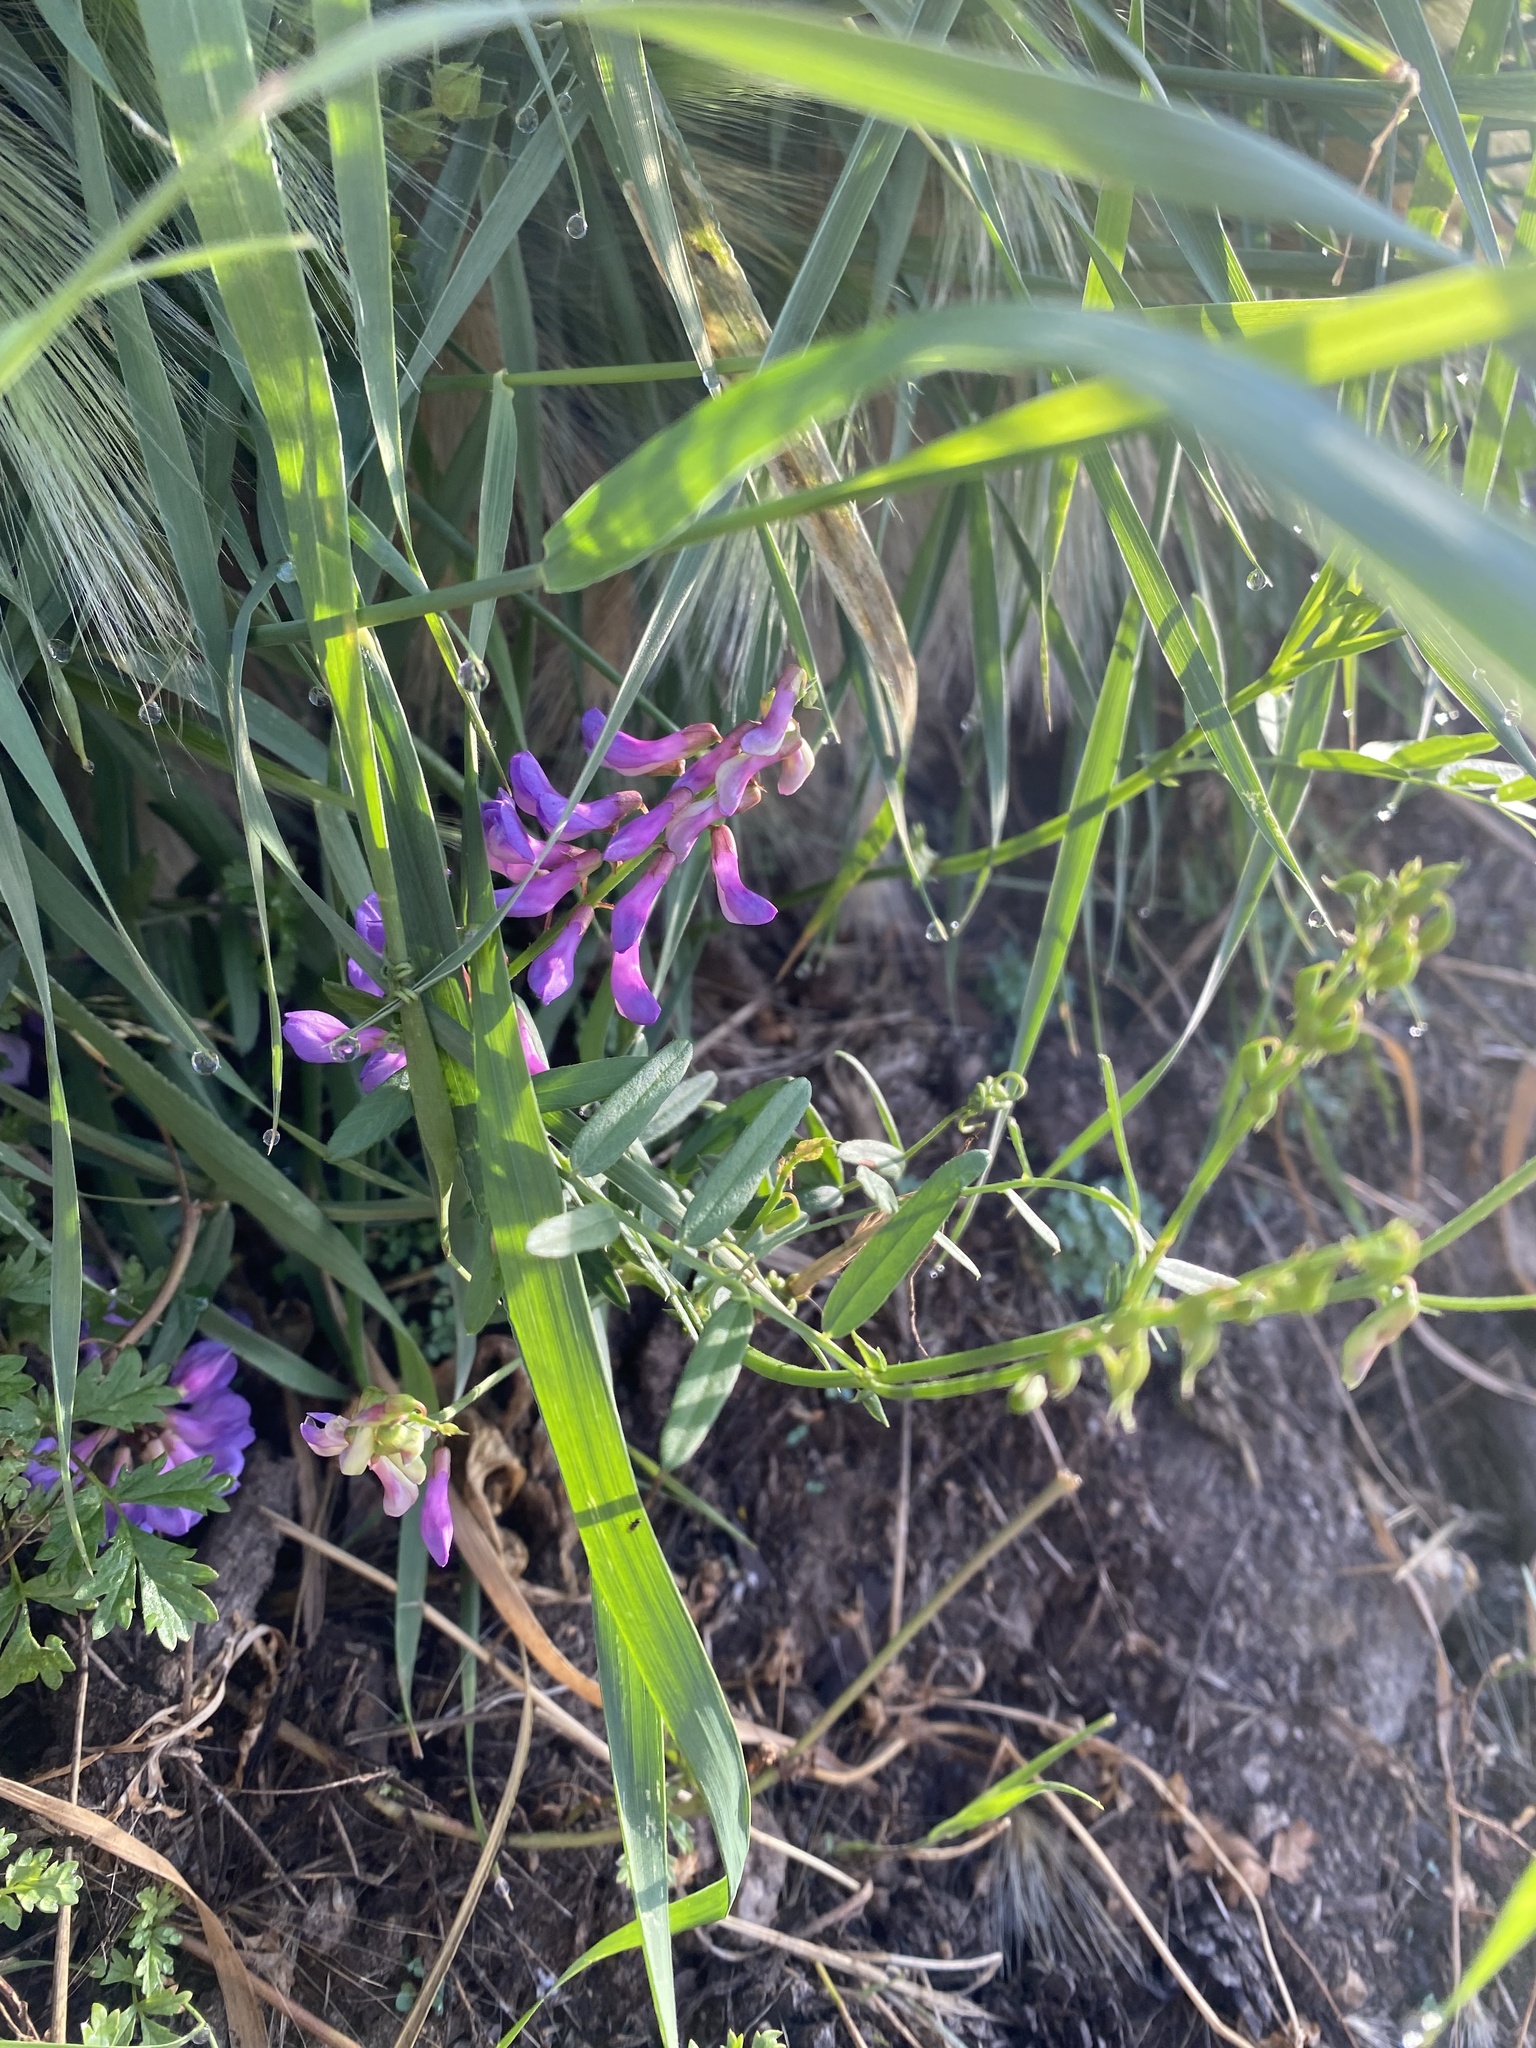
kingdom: Plantae
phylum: Tracheophyta
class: Magnoliopsida
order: Fabales
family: Fabaceae
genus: Vicia
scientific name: Vicia amoena
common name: Cheder ebs
